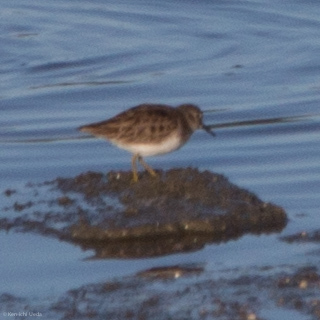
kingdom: Animalia
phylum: Chordata
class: Aves
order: Charadriiformes
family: Scolopacidae
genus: Calidris
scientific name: Calidris minutilla
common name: Least sandpiper
